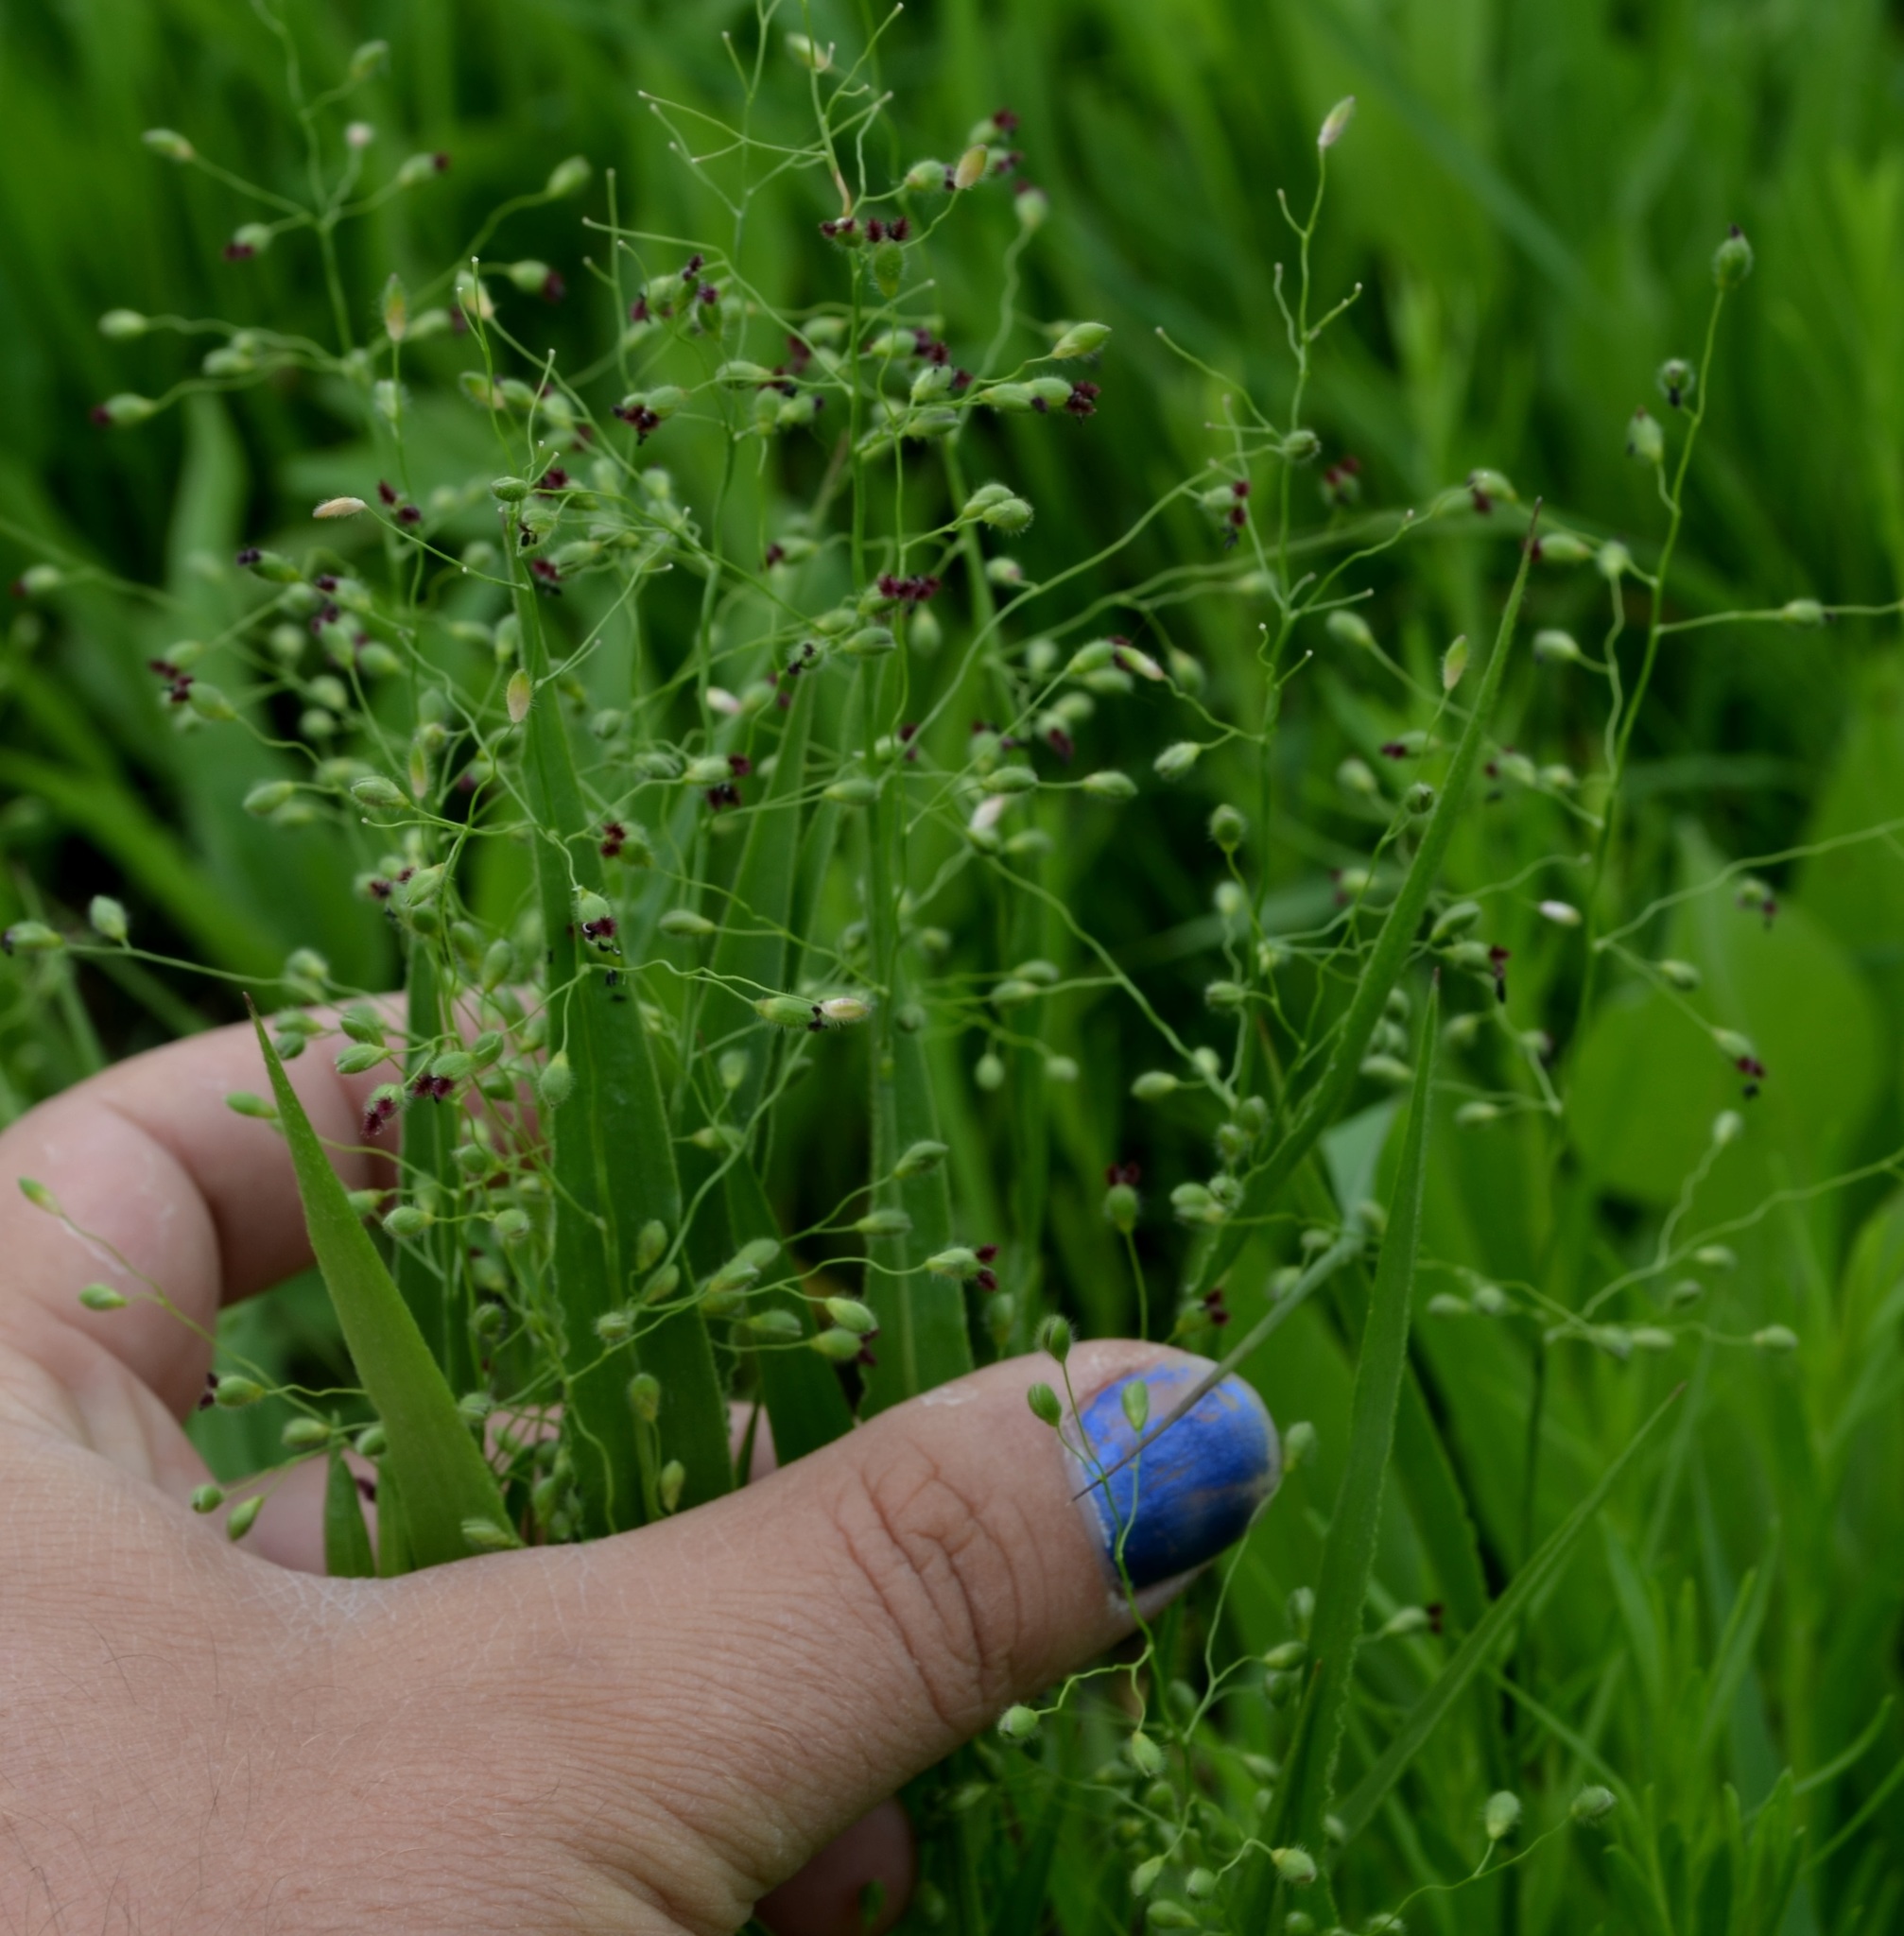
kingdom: Plantae
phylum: Tracheophyta
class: Liliopsida
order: Poales
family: Poaceae
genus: Dichanthelium
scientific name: Dichanthelium scribnerianum
